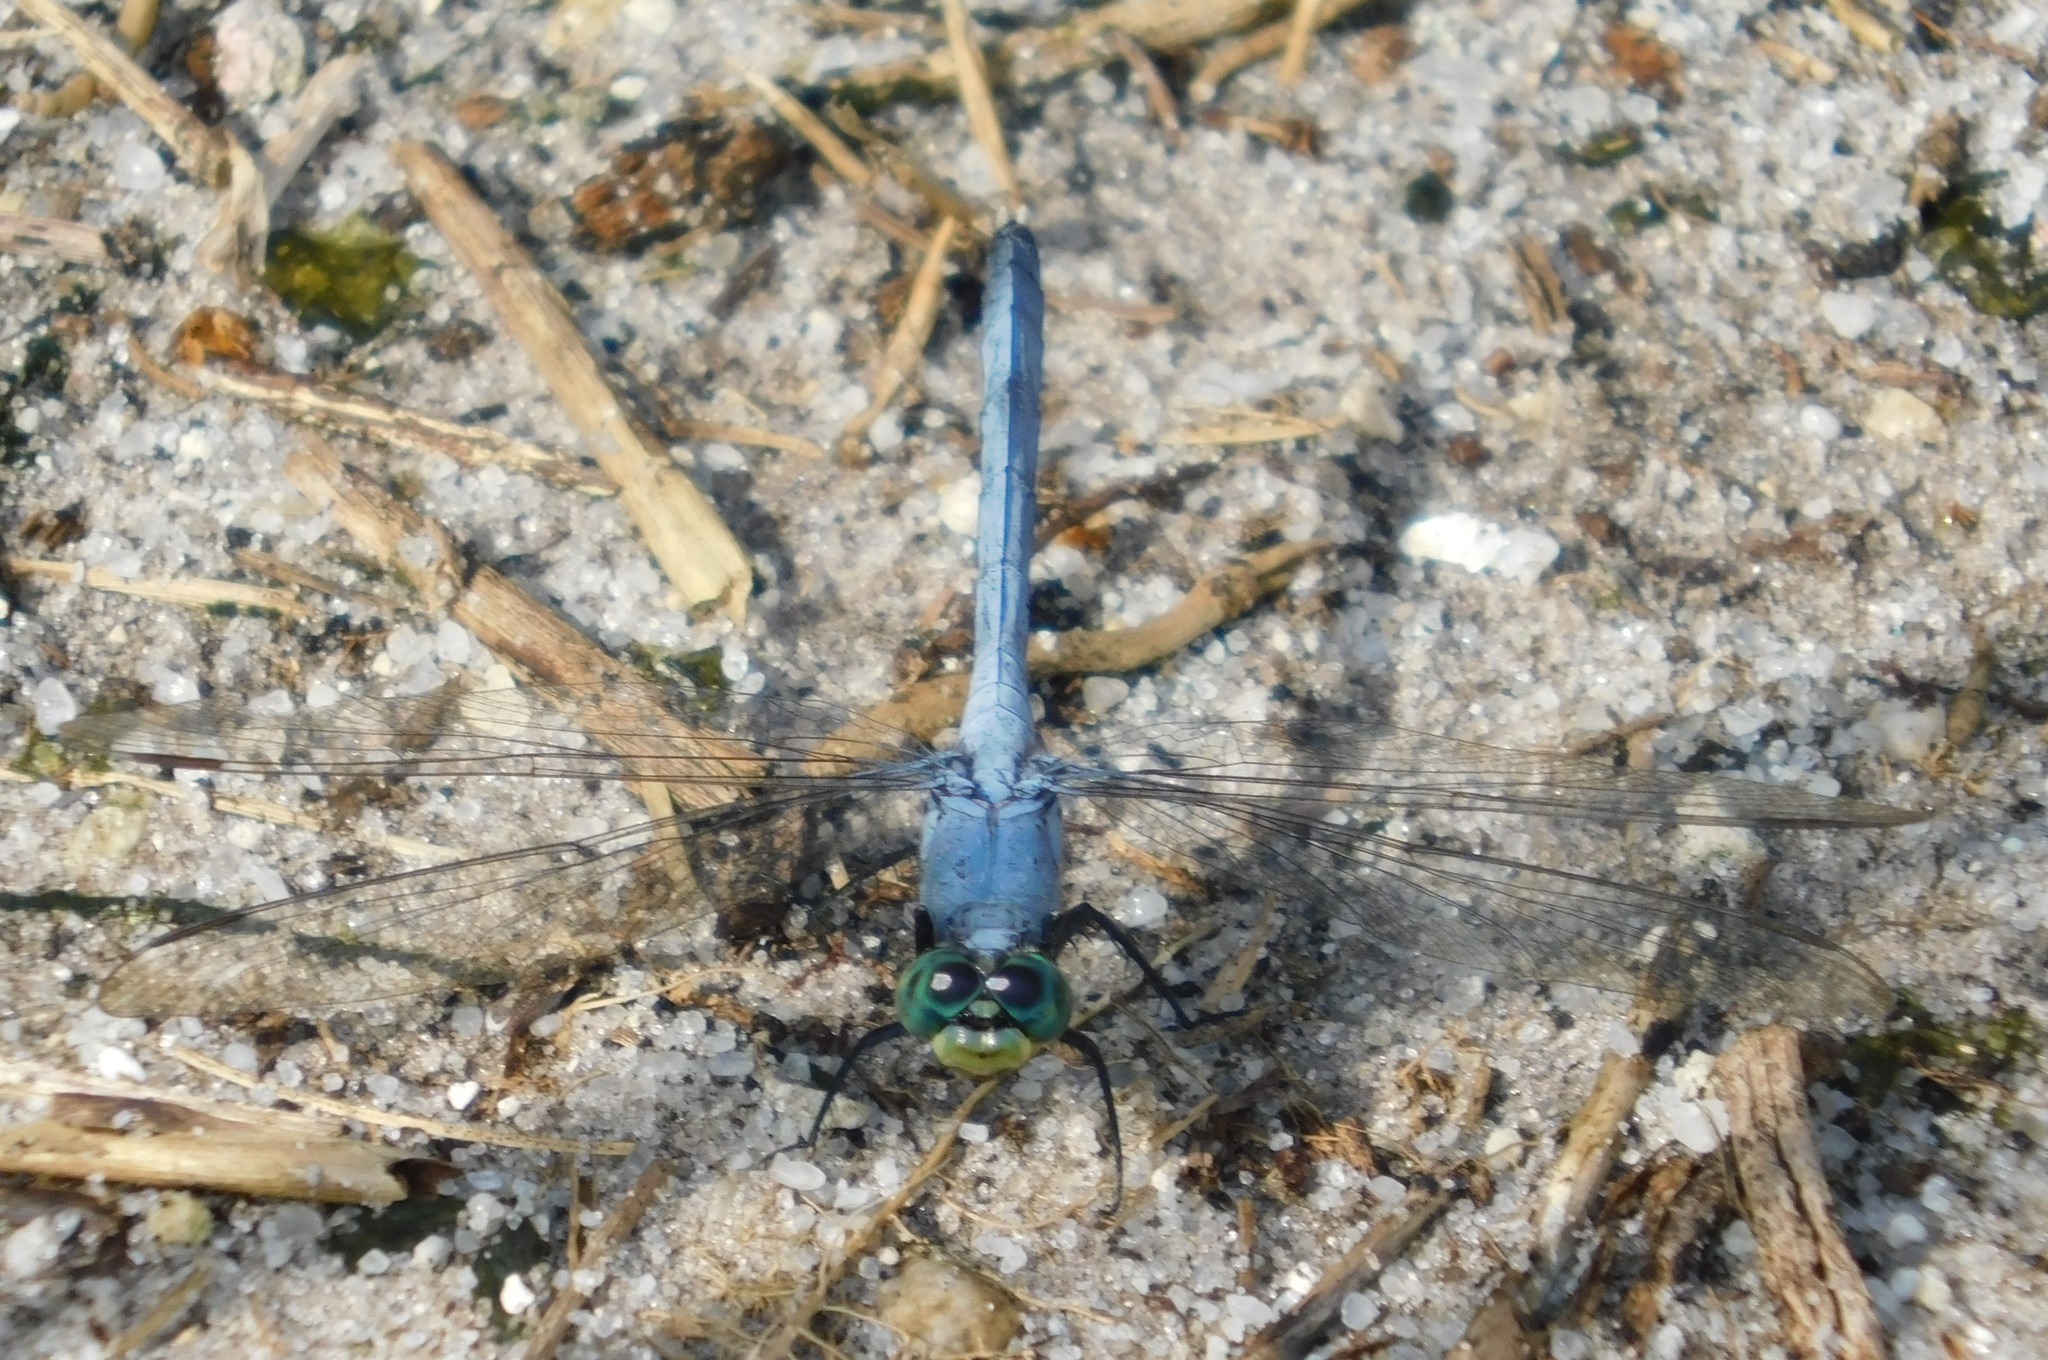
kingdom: Animalia
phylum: Arthropoda
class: Insecta
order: Odonata
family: Libellulidae
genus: Erythemis
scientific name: Erythemis simplicicollis
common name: Eastern pondhawk
